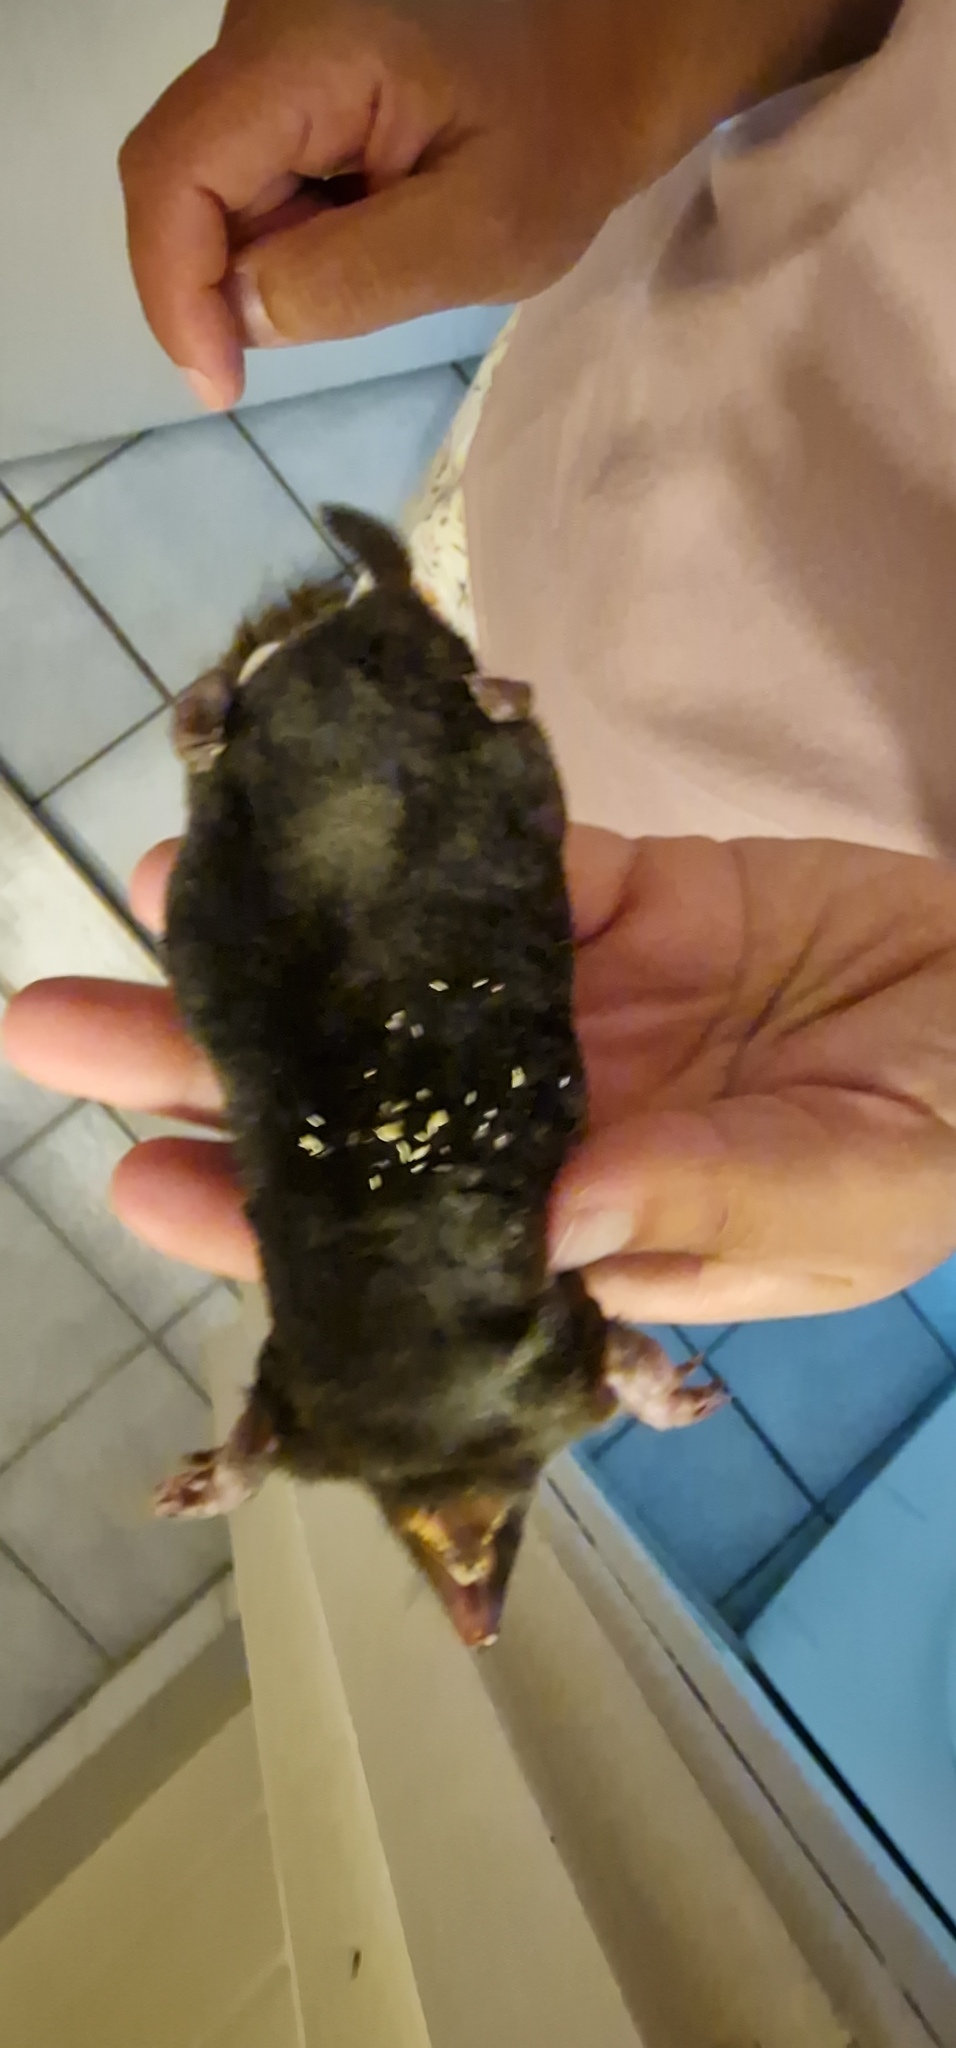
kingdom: Animalia
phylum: Chordata
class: Mammalia
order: Soricomorpha
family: Talpidae
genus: Talpa
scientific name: Talpa europaea
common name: European mole
